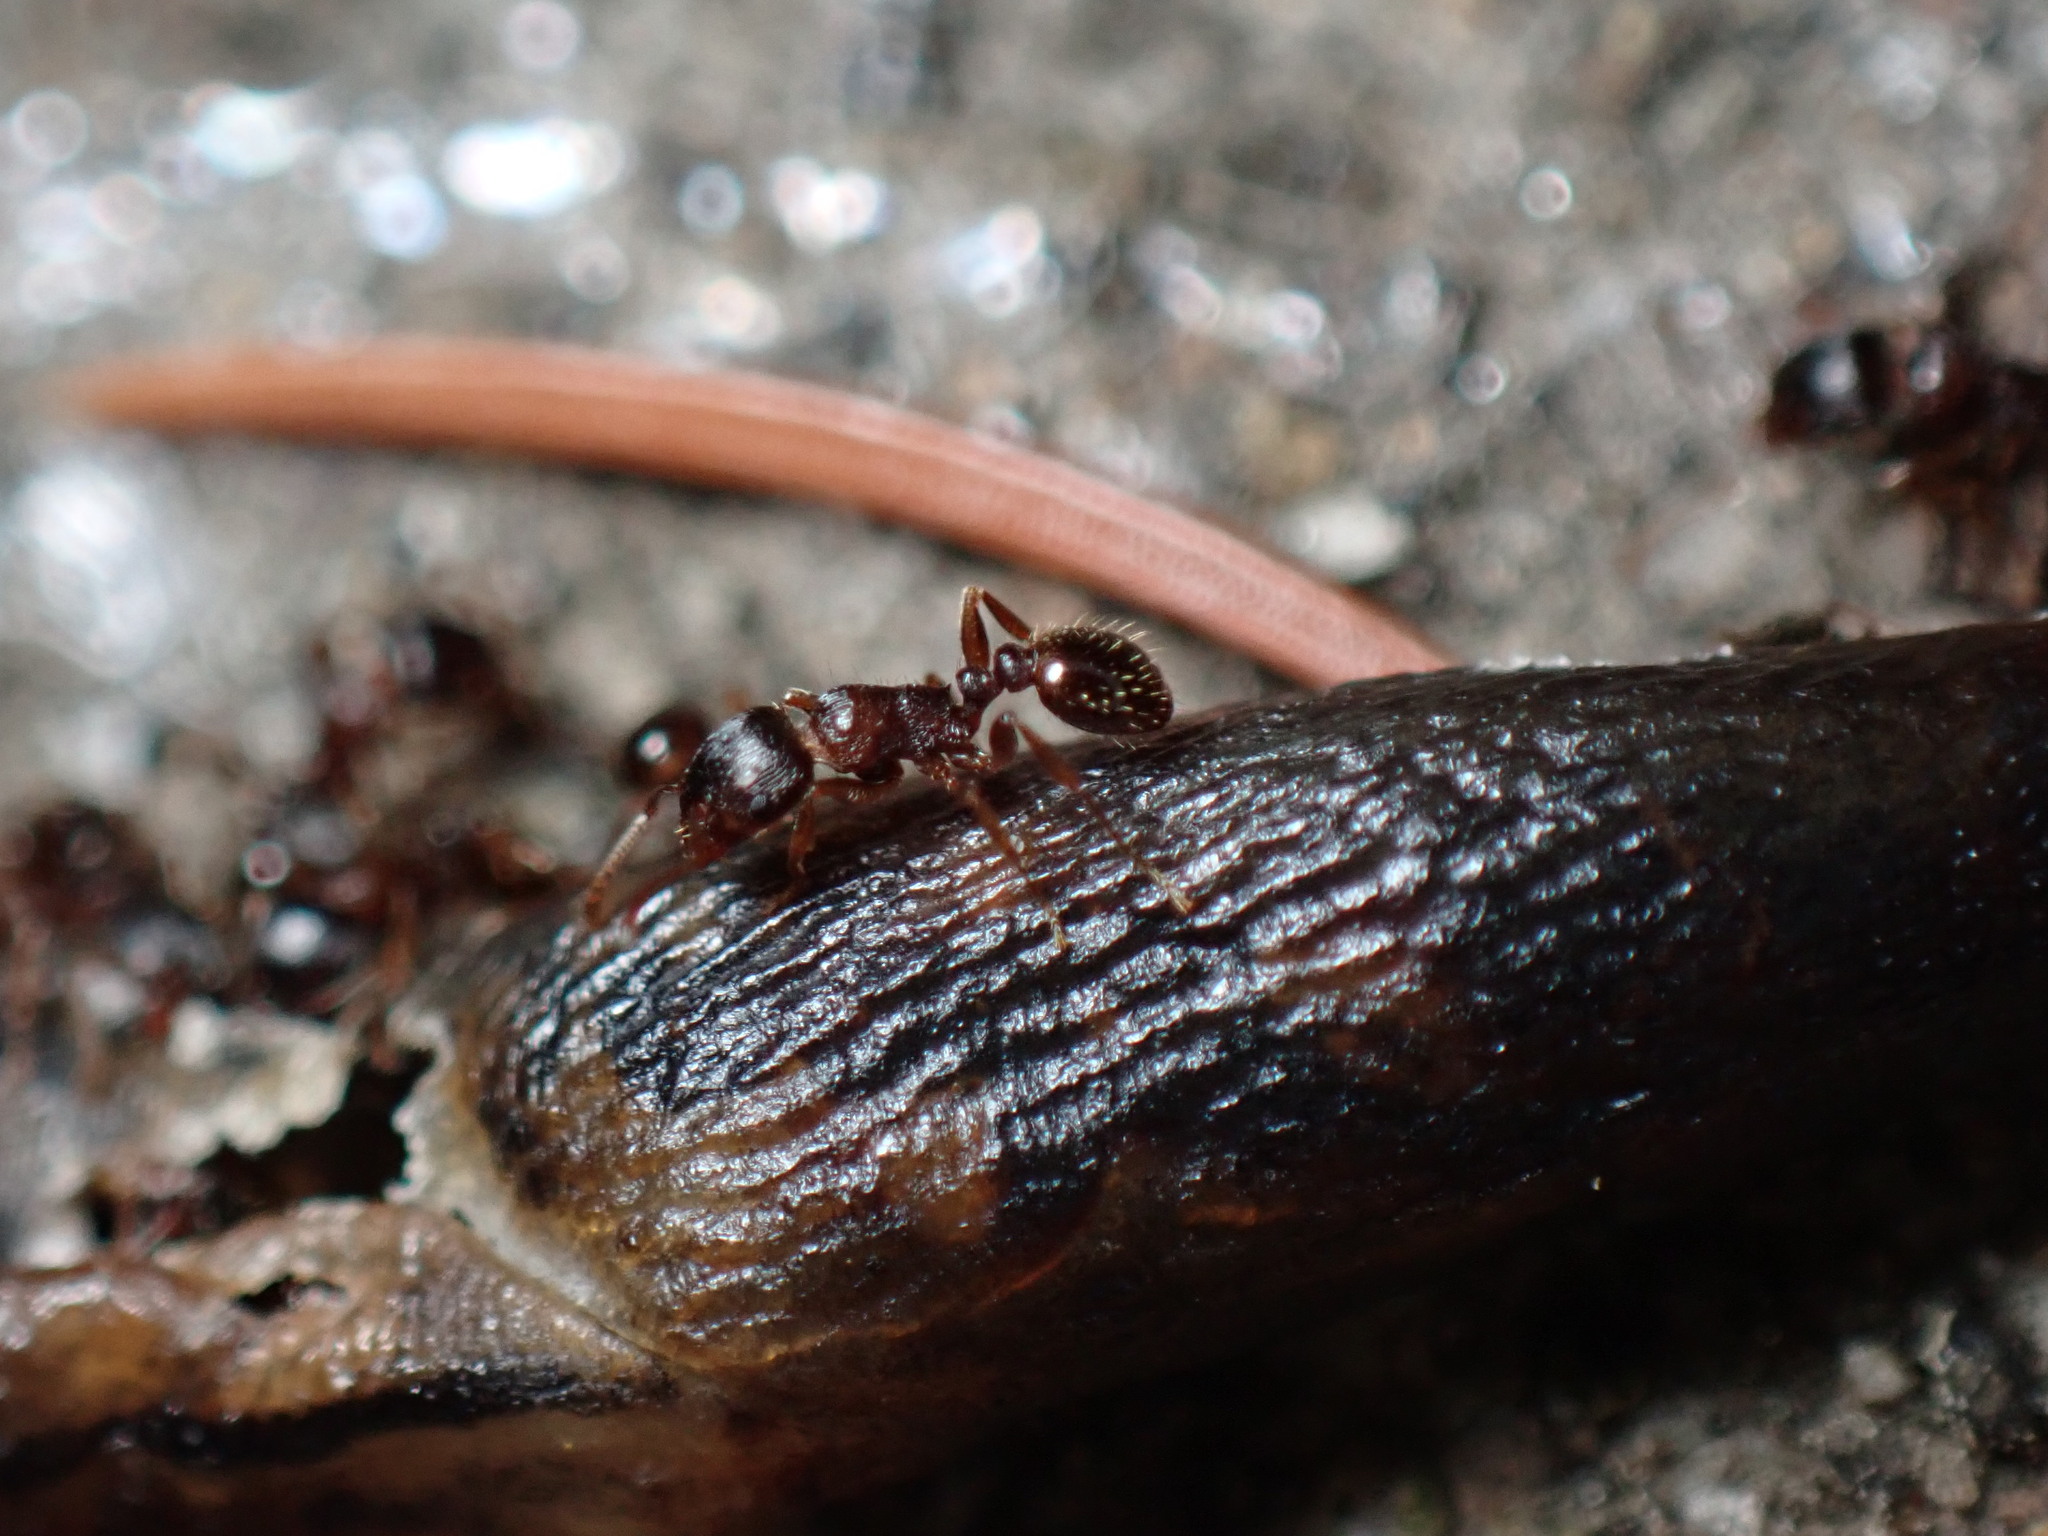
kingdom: Animalia
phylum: Arthropoda
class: Insecta
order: Hymenoptera
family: Formicidae
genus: Tetramorium
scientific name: Tetramorium immigrans
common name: Pavement ant
